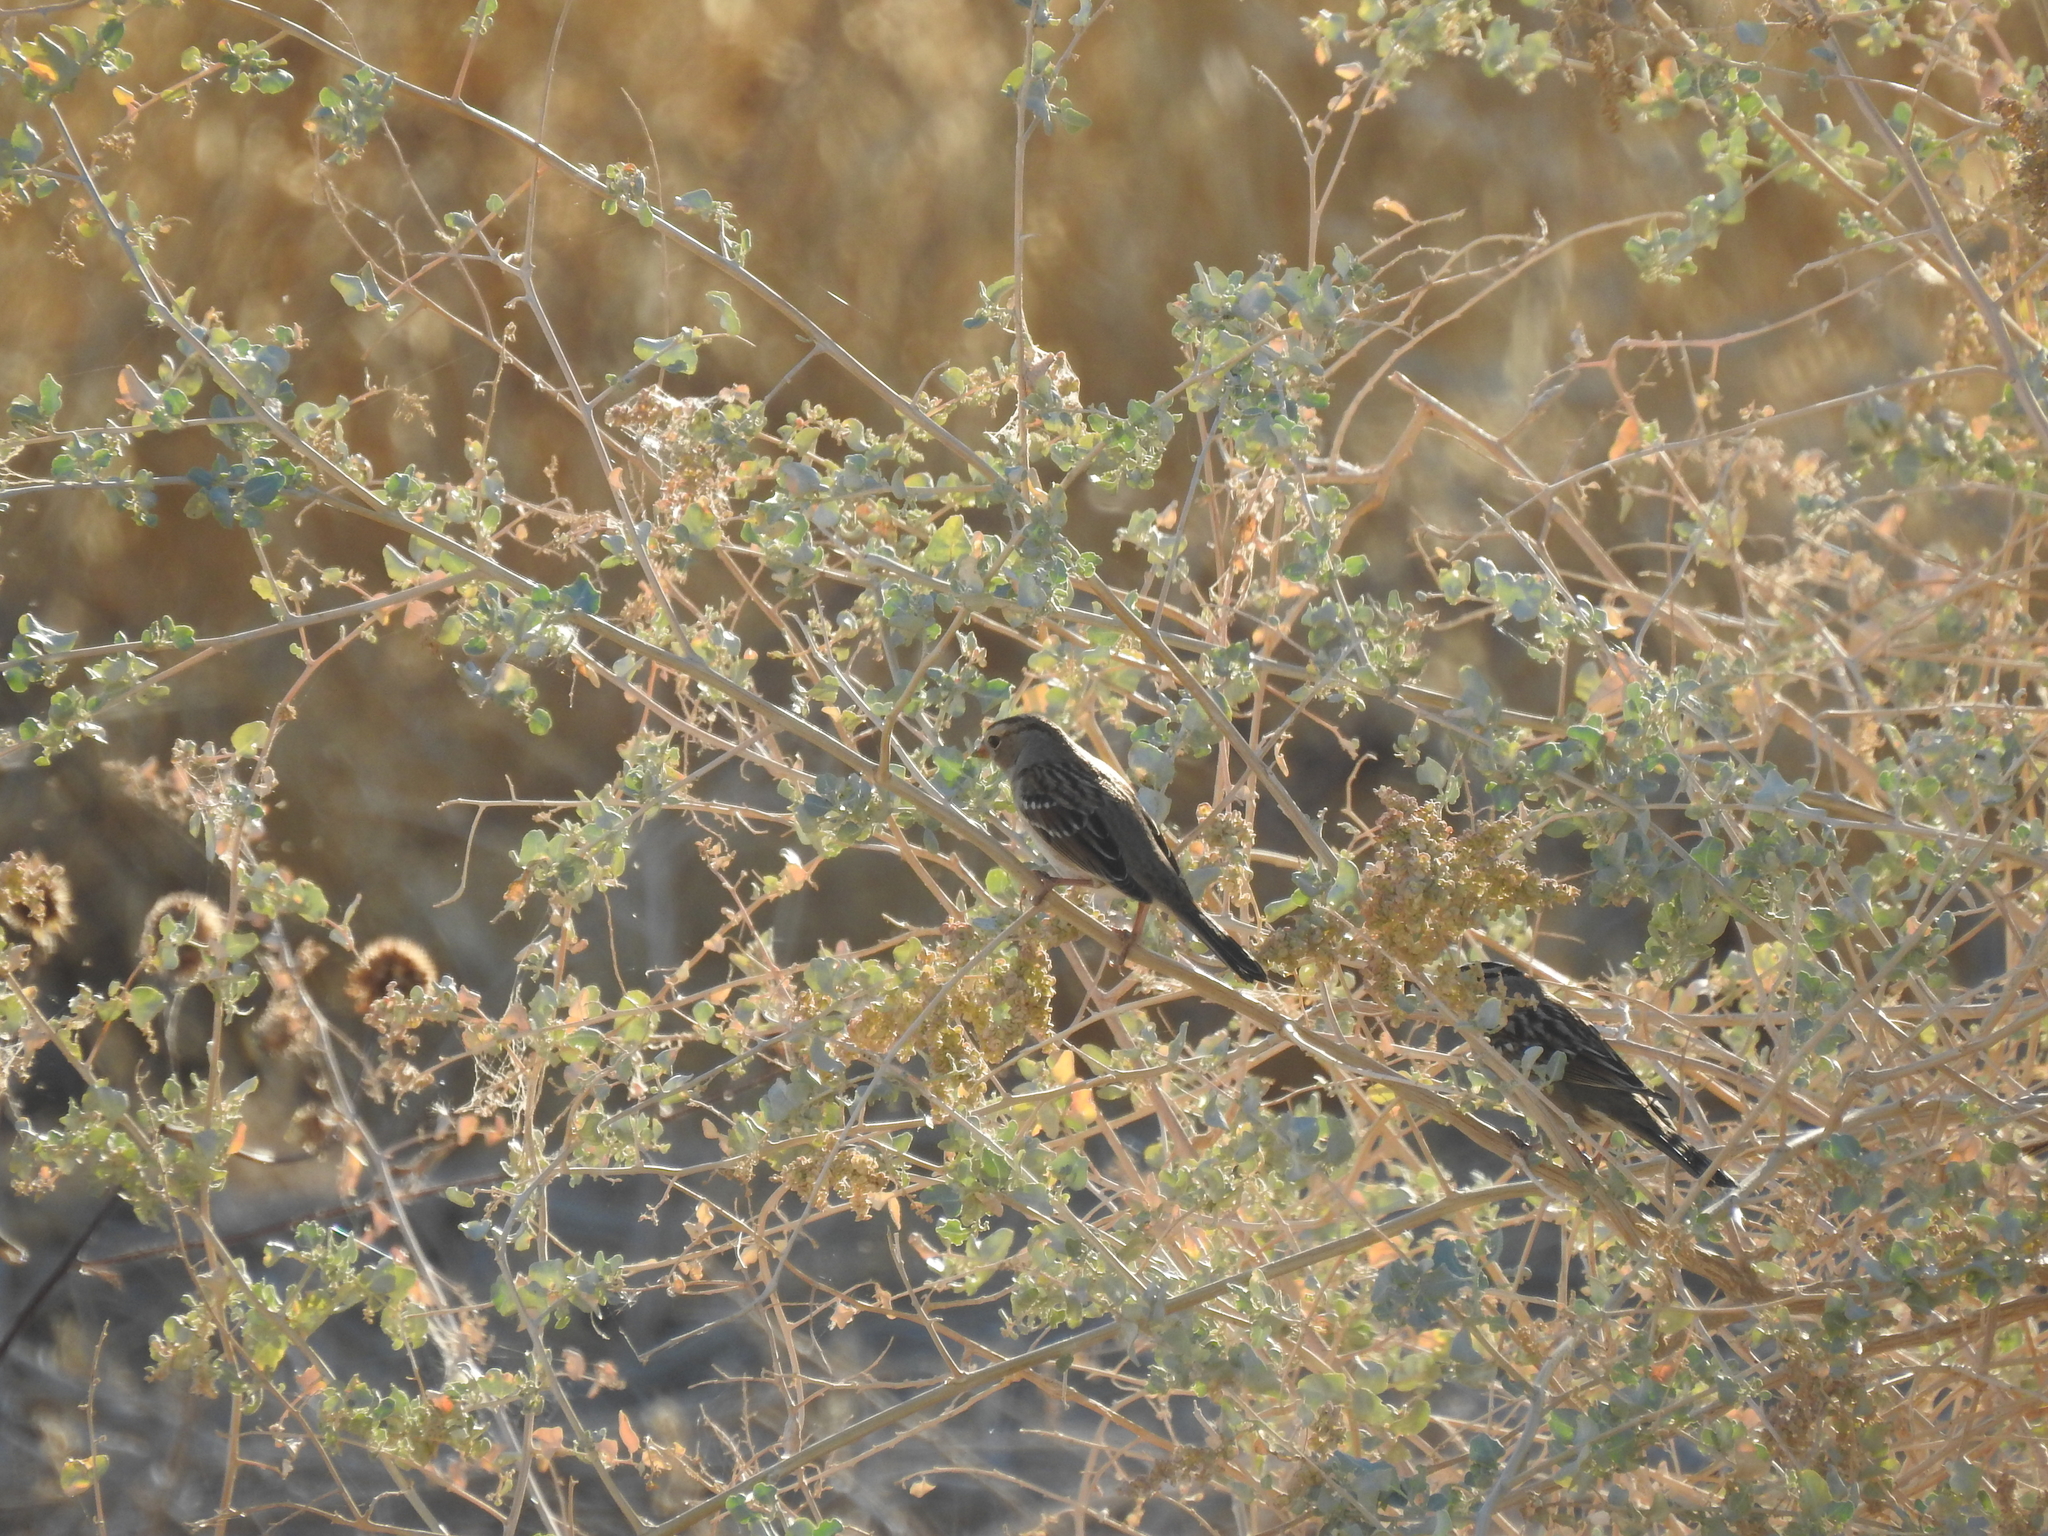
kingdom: Animalia
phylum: Chordata
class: Aves
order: Passeriformes
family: Passerellidae
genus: Zonotrichia
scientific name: Zonotrichia leucophrys
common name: White-crowned sparrow
